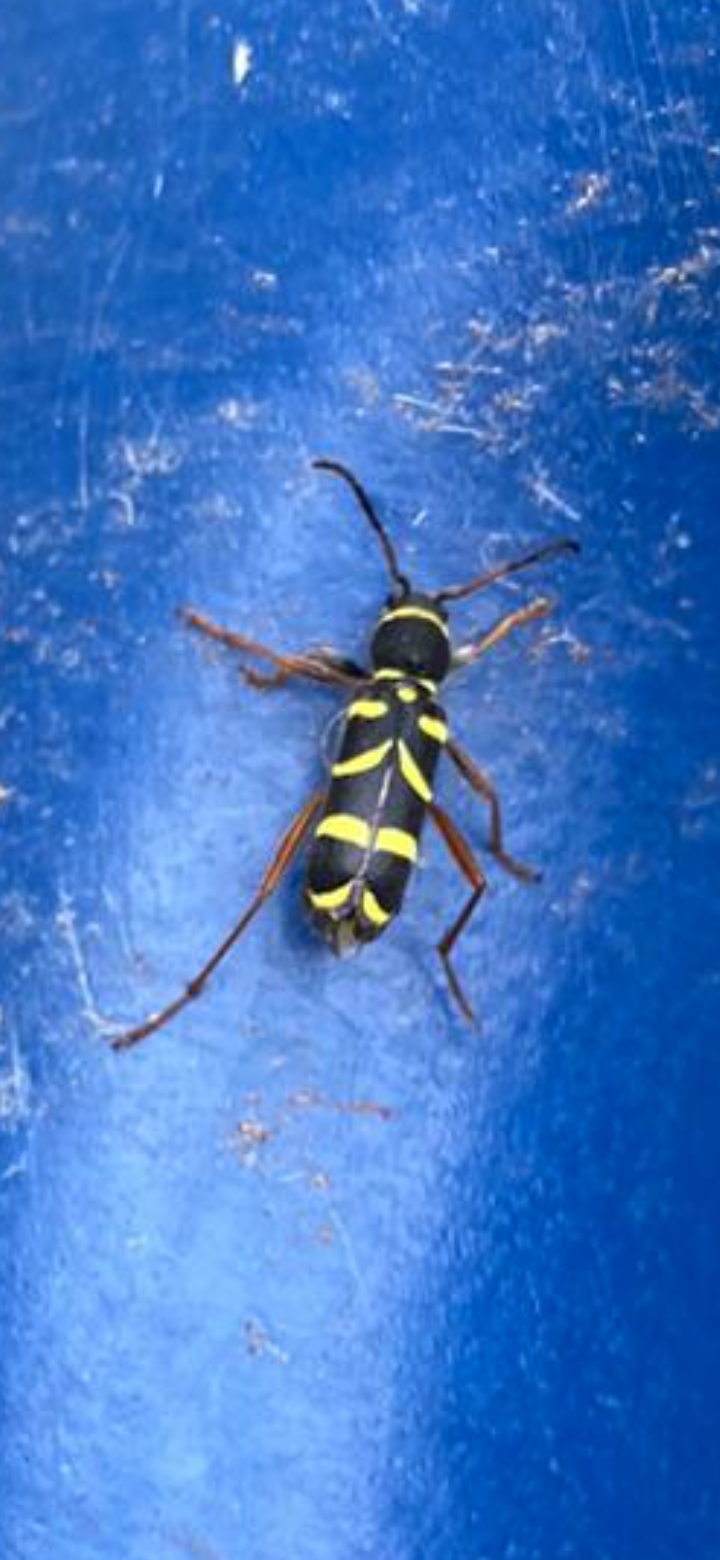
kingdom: Animalia
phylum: Arthropoda
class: Insecta
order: Coleoptera
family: Cerambycidae
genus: Clytus
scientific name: Clytus arietis
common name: Wasp beetle
